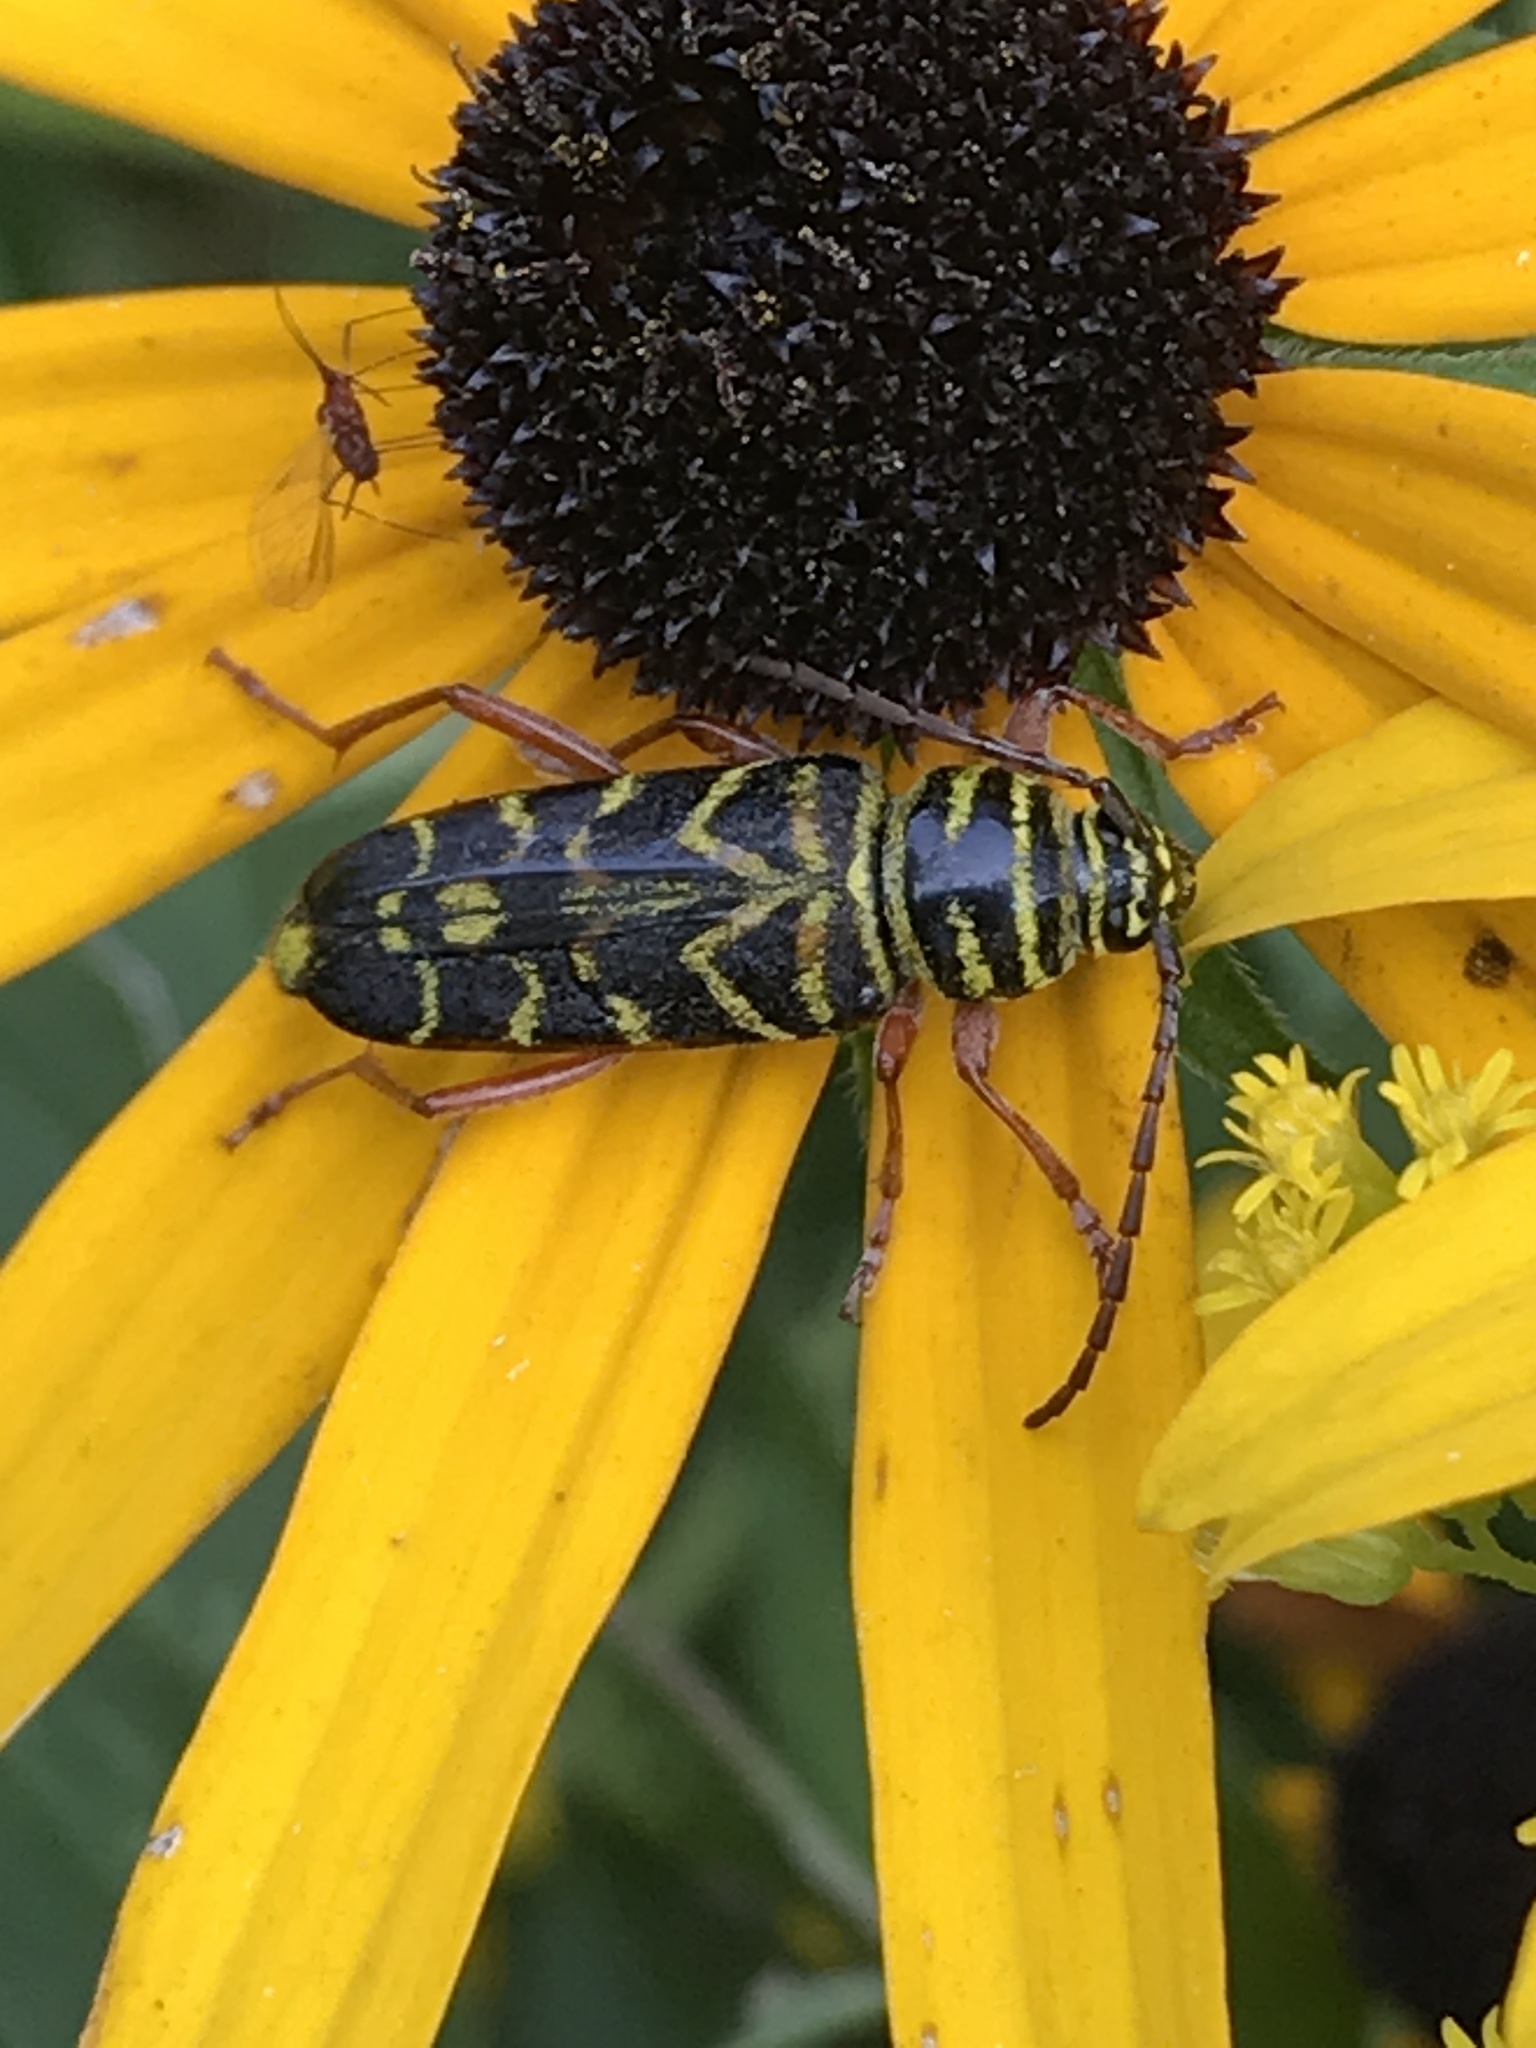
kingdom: Animalia
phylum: Arthropoda
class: Insecta
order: Coleoptera
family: Cerambycidae
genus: Megacyllene
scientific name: Megacyllene robiniae
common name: Locust borer
